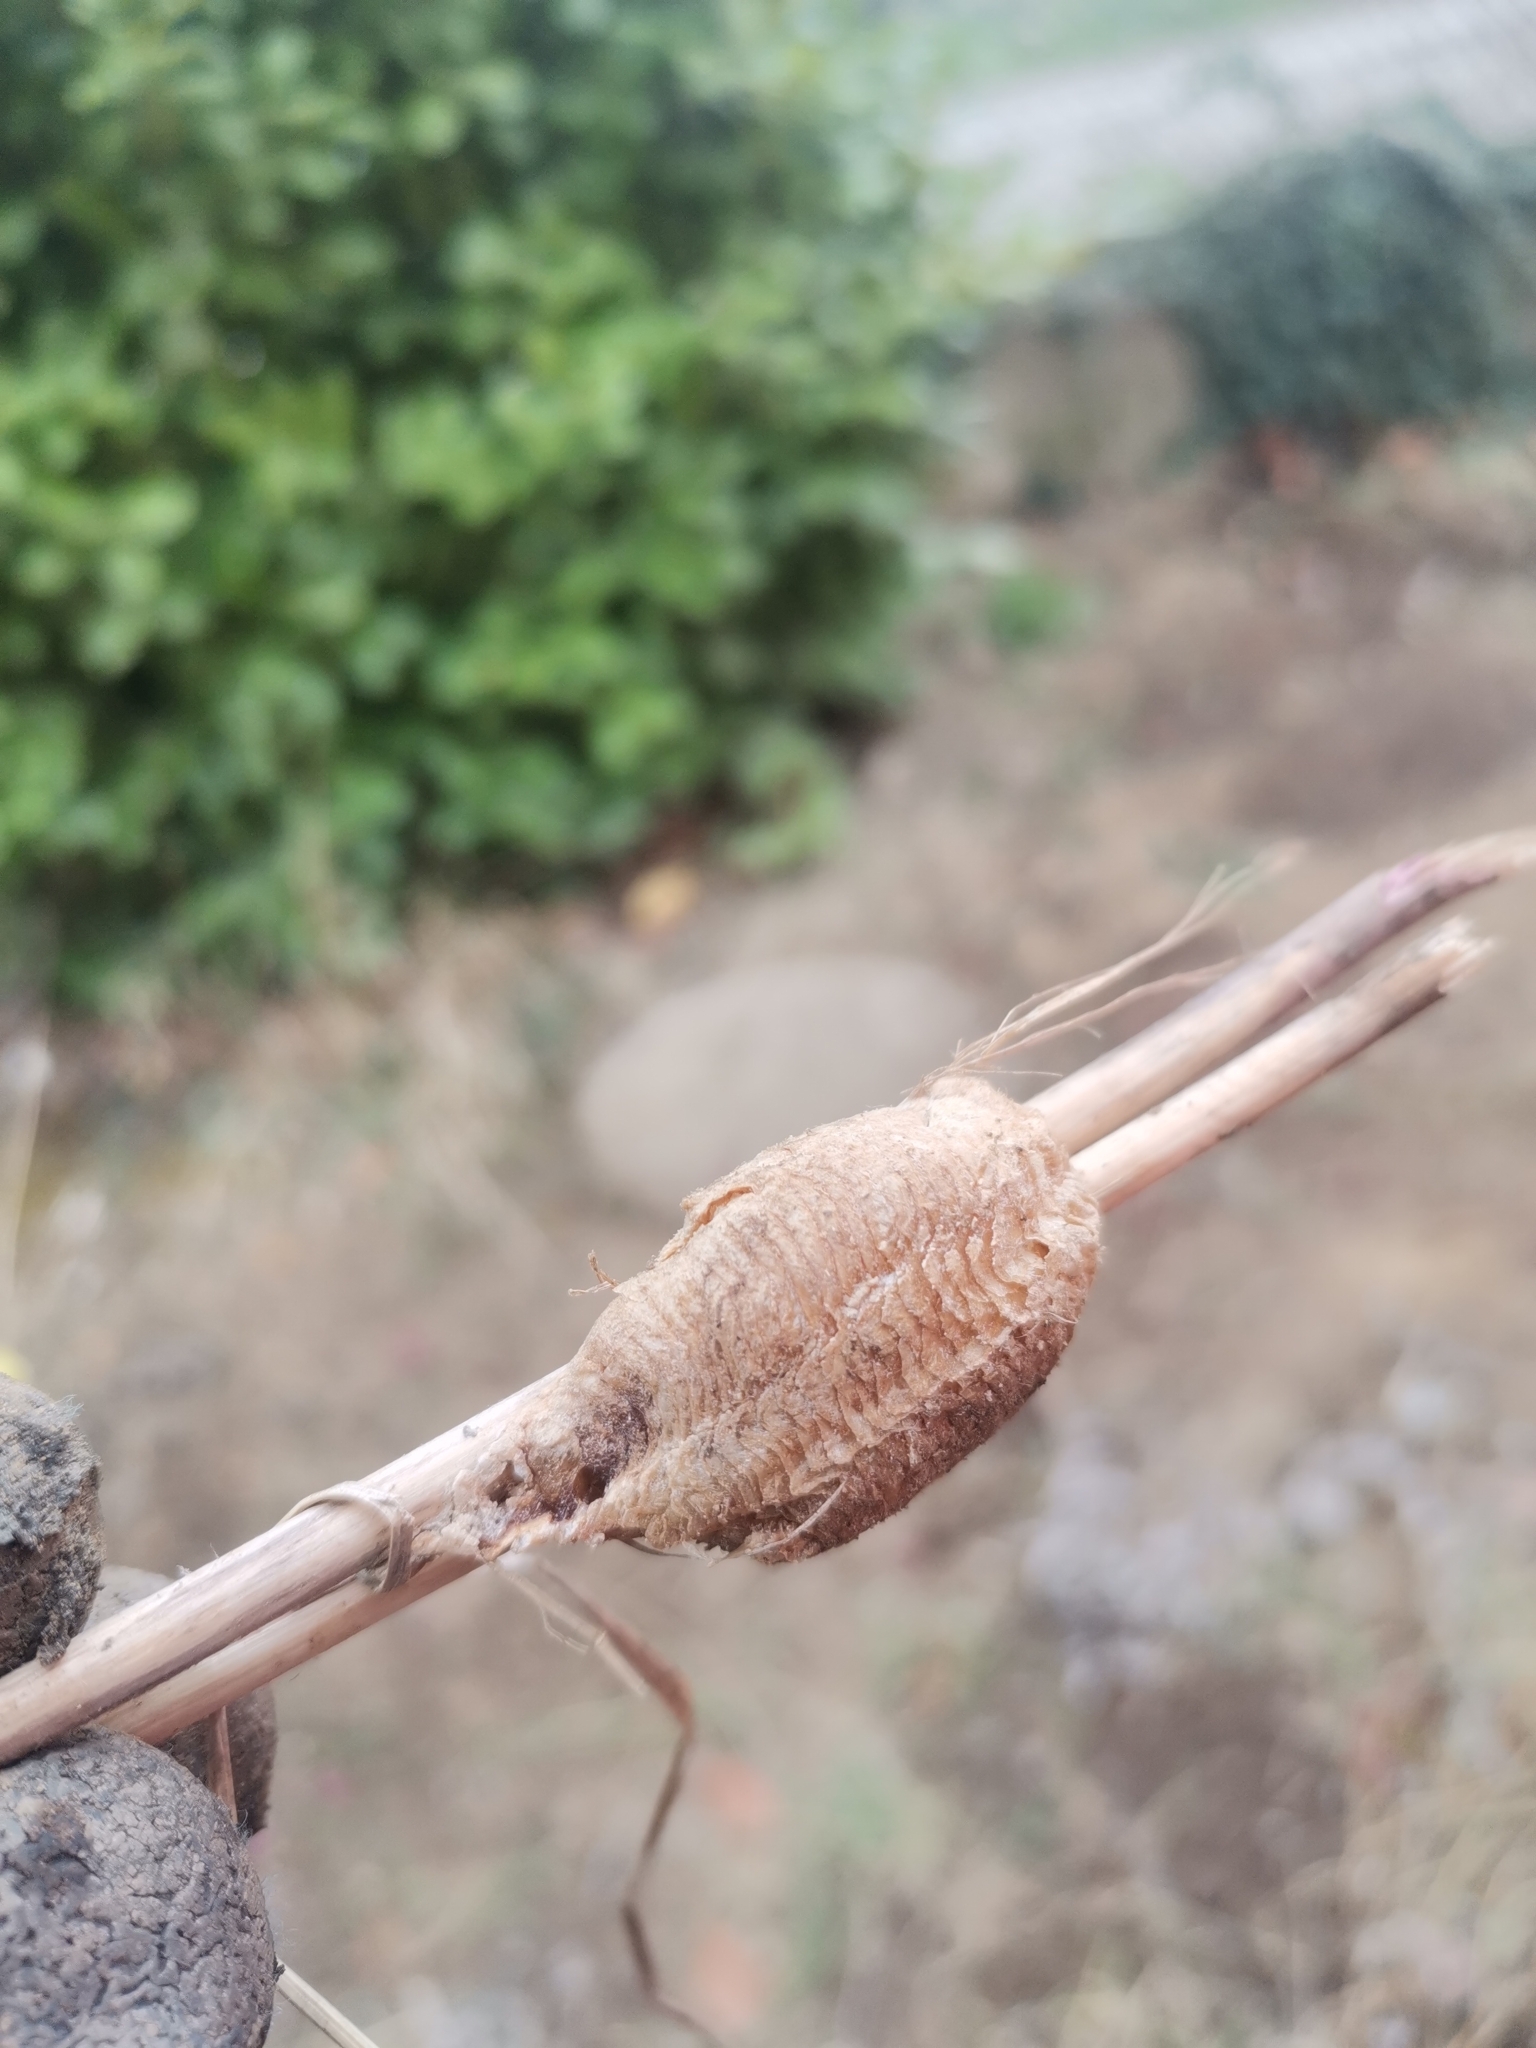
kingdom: Animalia
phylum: Arthropoda
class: Insecta
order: Mantodea
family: Mantidae
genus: Mantis
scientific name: Mantis religiosa
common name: Praying mantis
